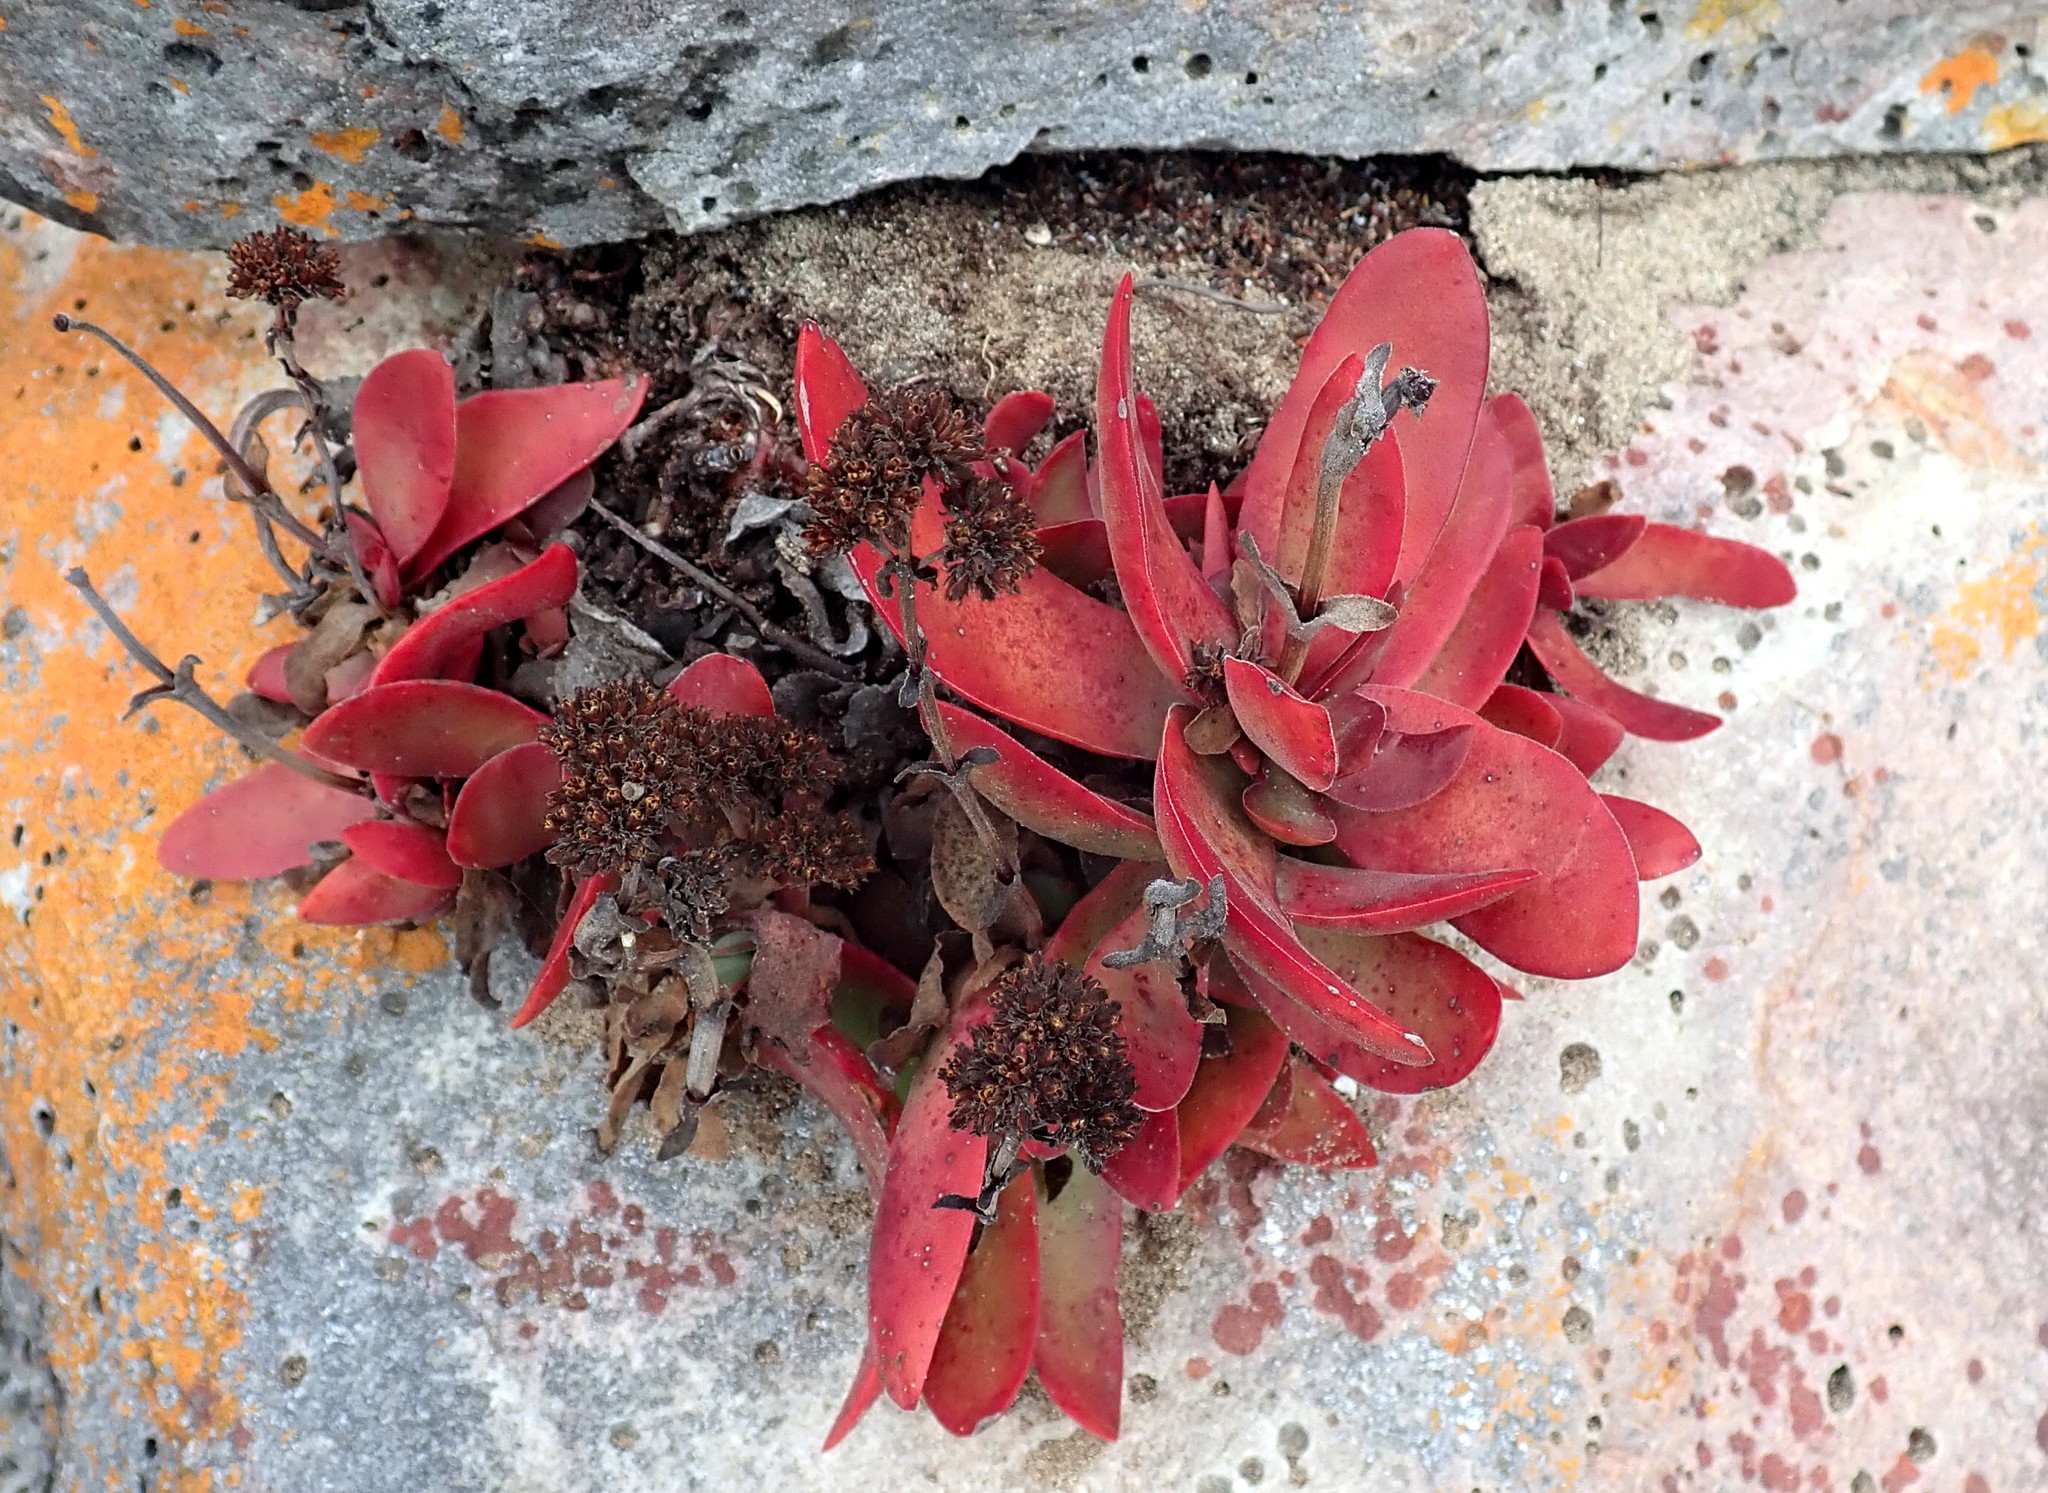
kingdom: Plantae
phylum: Tracheophyta
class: Magnoliopsida
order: Saxifragales
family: Crassulaceae
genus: Crassula
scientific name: Crassula atropurpurea
